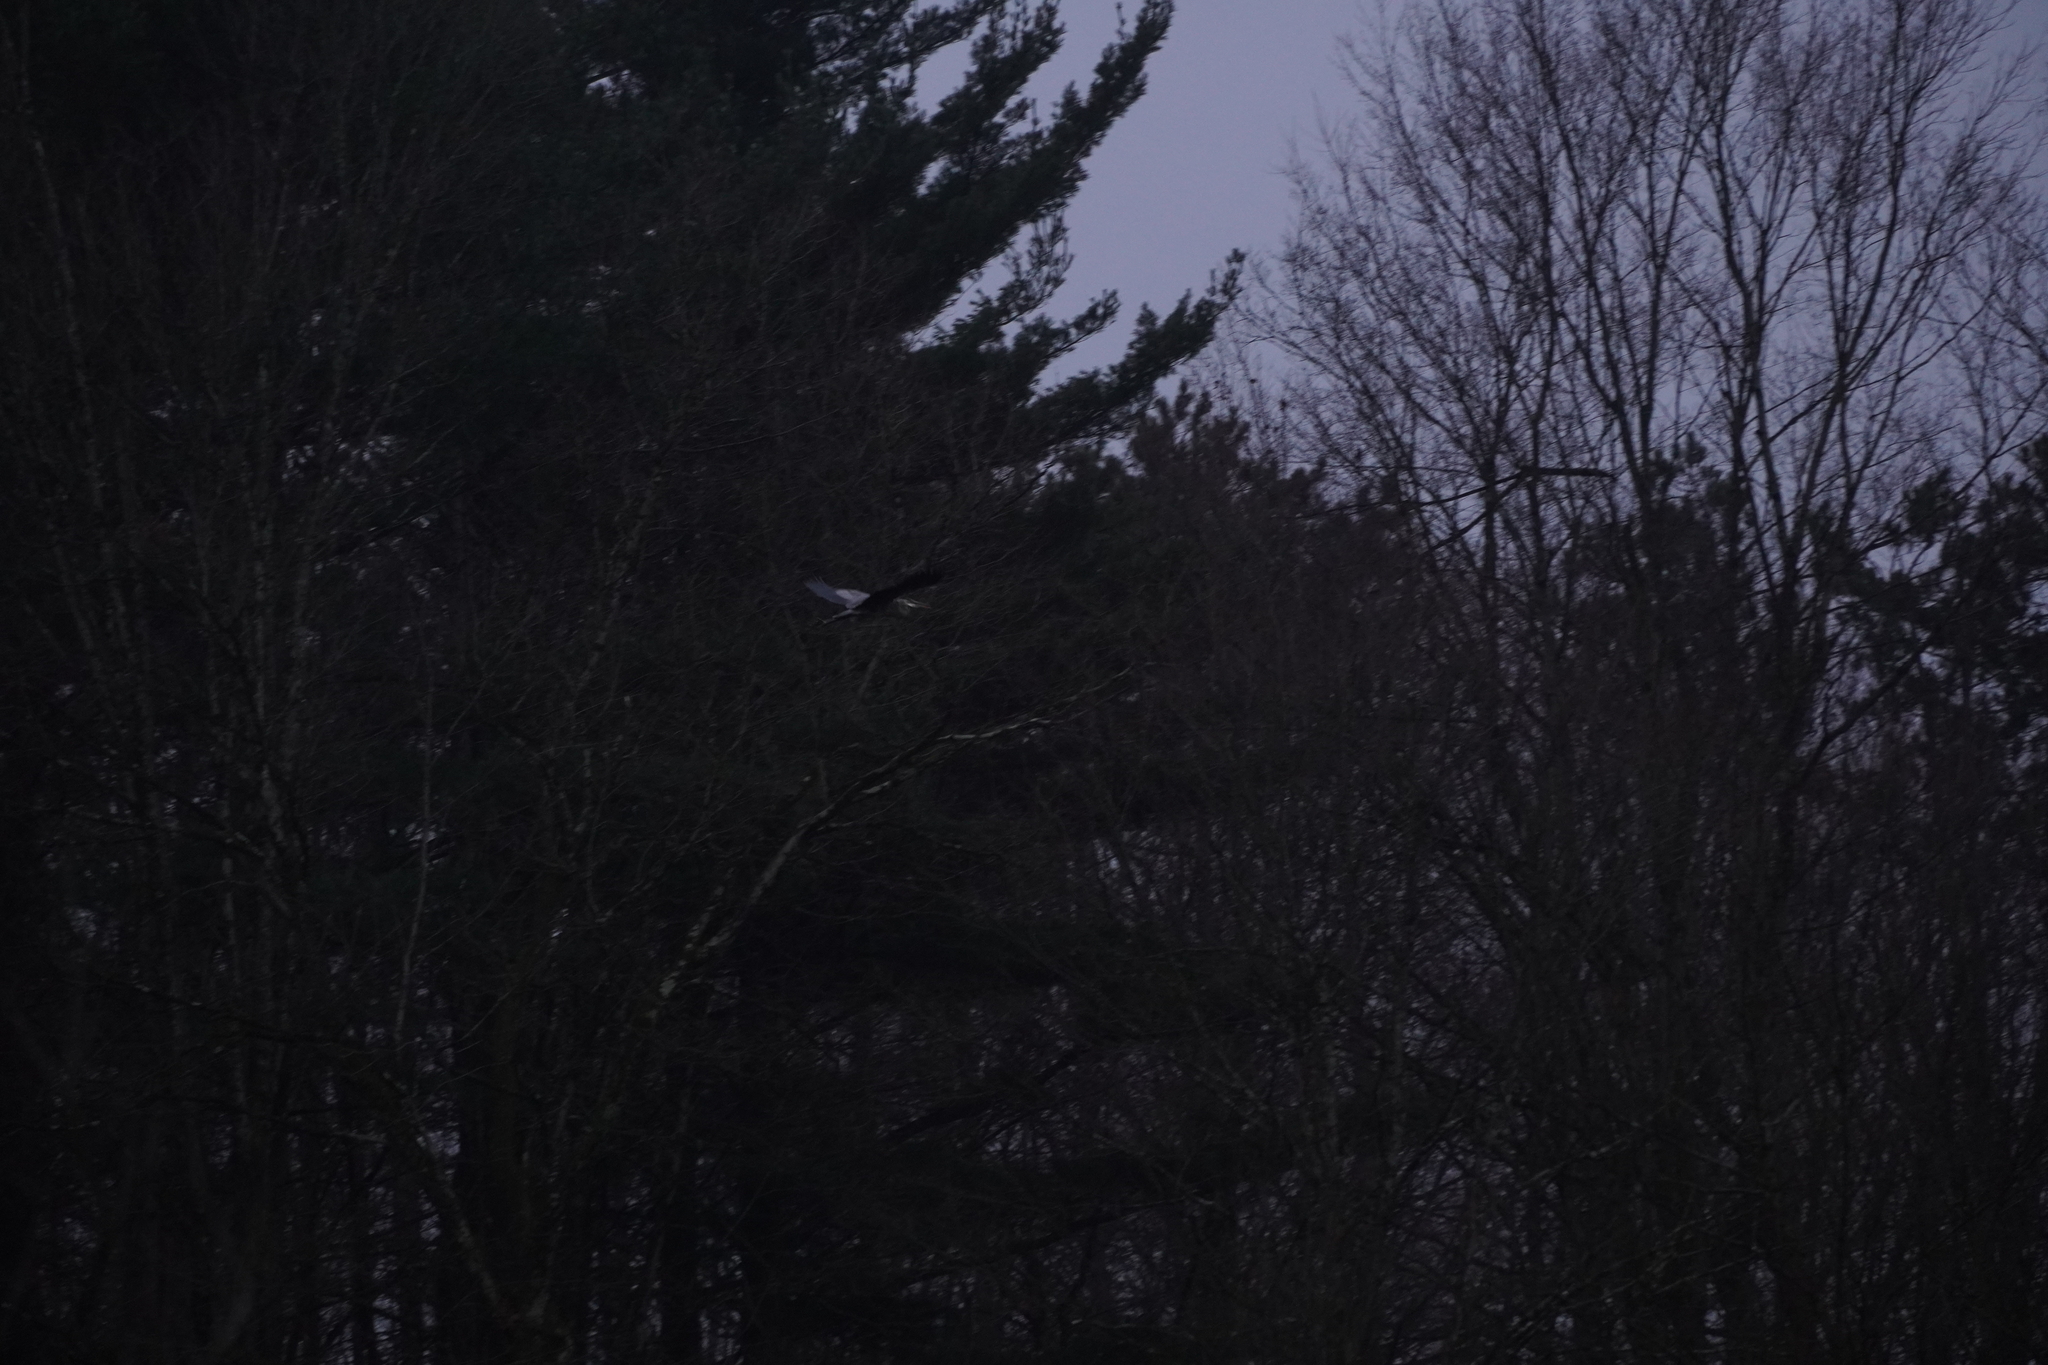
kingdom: Animalia
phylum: Chordata
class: Aves
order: Pelecaniformes
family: Ardeidae
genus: Ardea
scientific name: Ardea herodias
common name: Great blue heron
